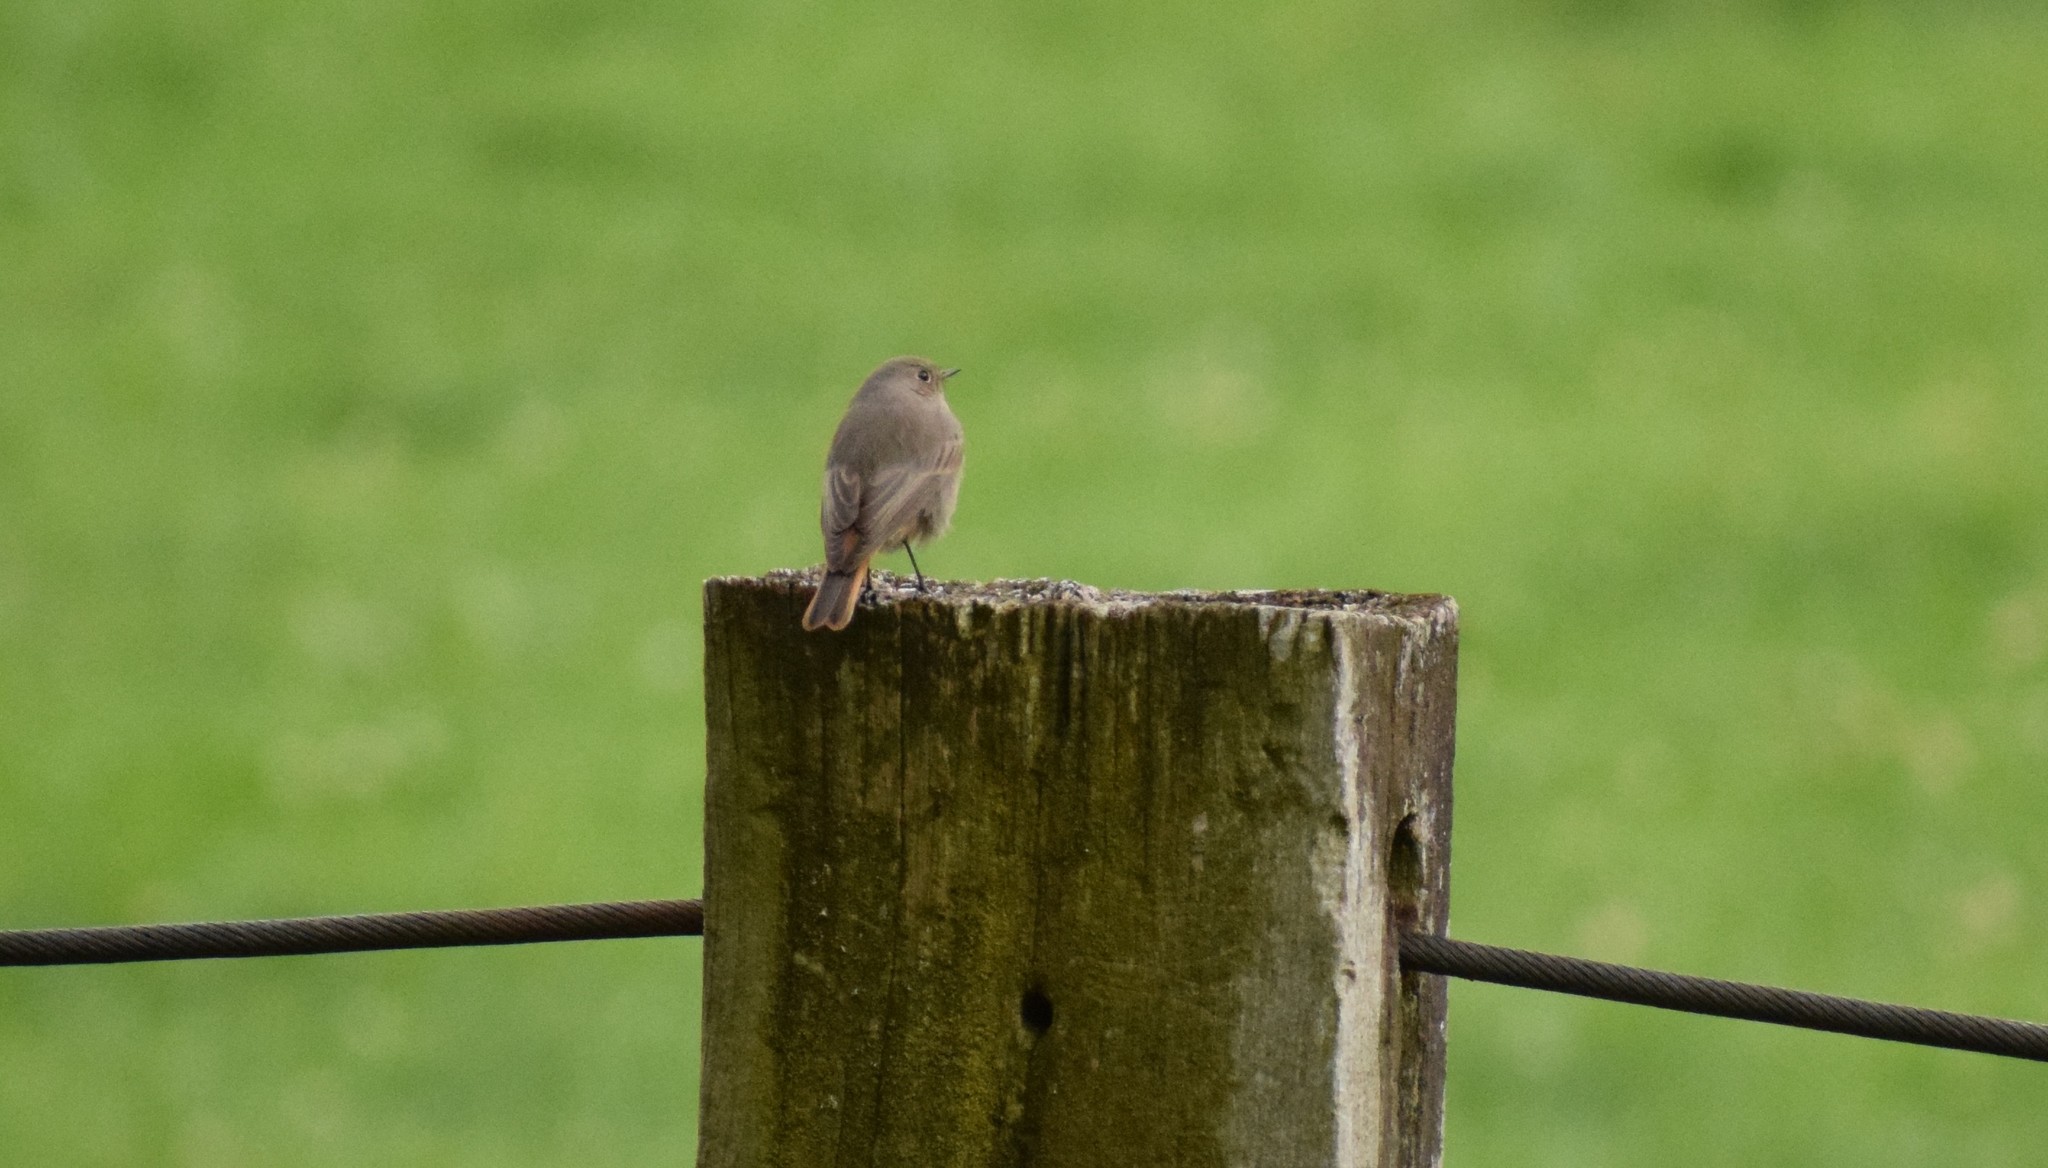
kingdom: Animalia
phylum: Chordata
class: Aves
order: Passeriformes
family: Muscicapidae
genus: Phoenicurus
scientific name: Phoenicurus ochruros
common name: Black redstart
